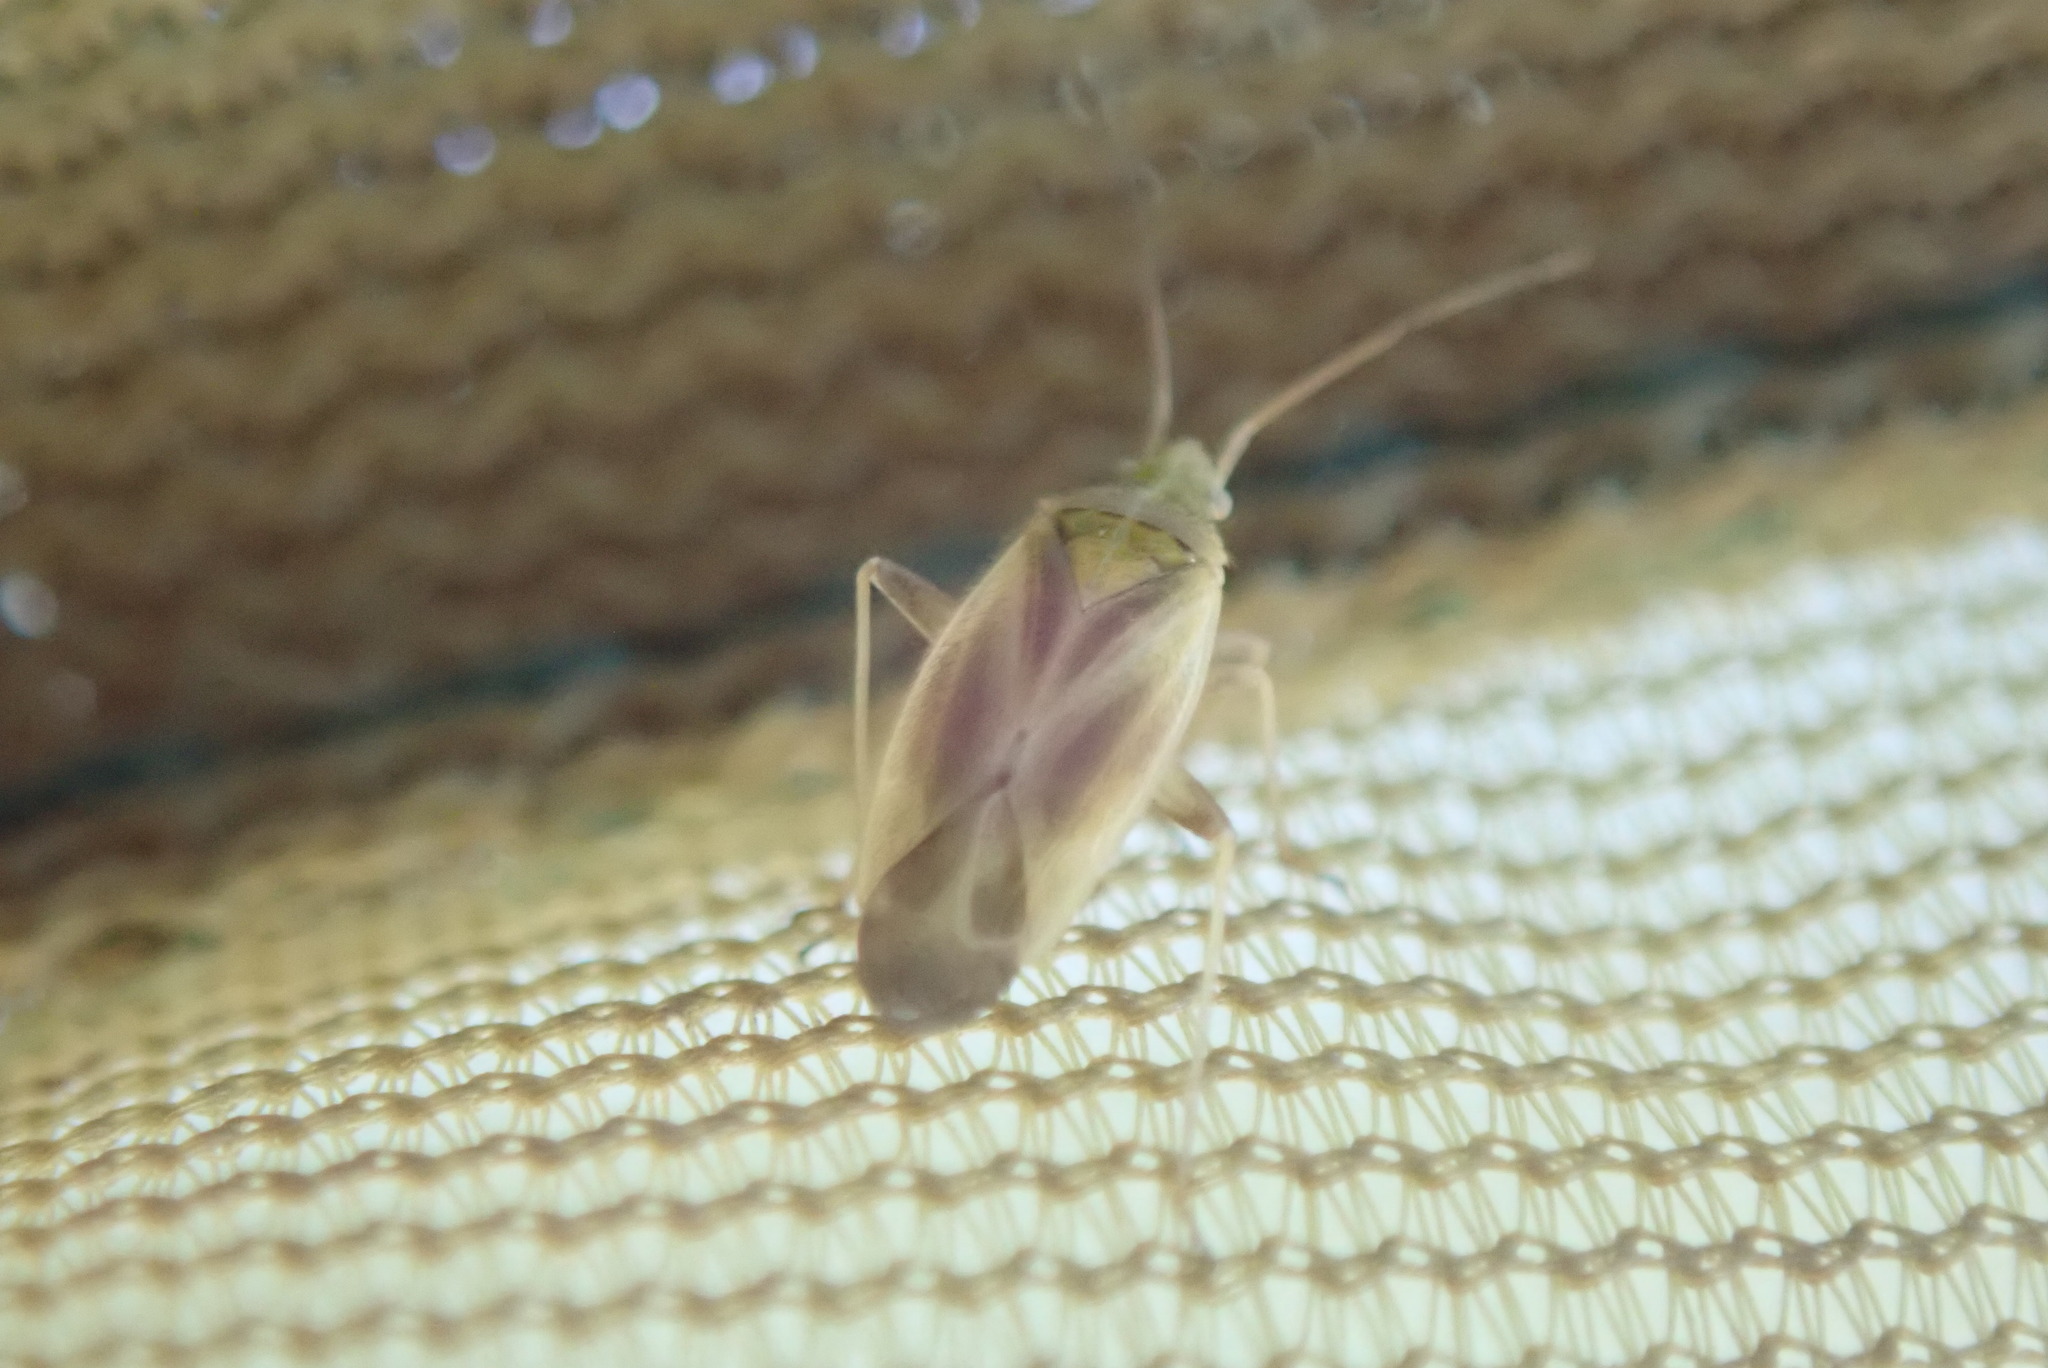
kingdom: Animalia
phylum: Arthropoda
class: Insecta
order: Hemiptera
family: Miridae
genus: Amblytylus
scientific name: Amblytylus nasutus
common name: Plant bug
